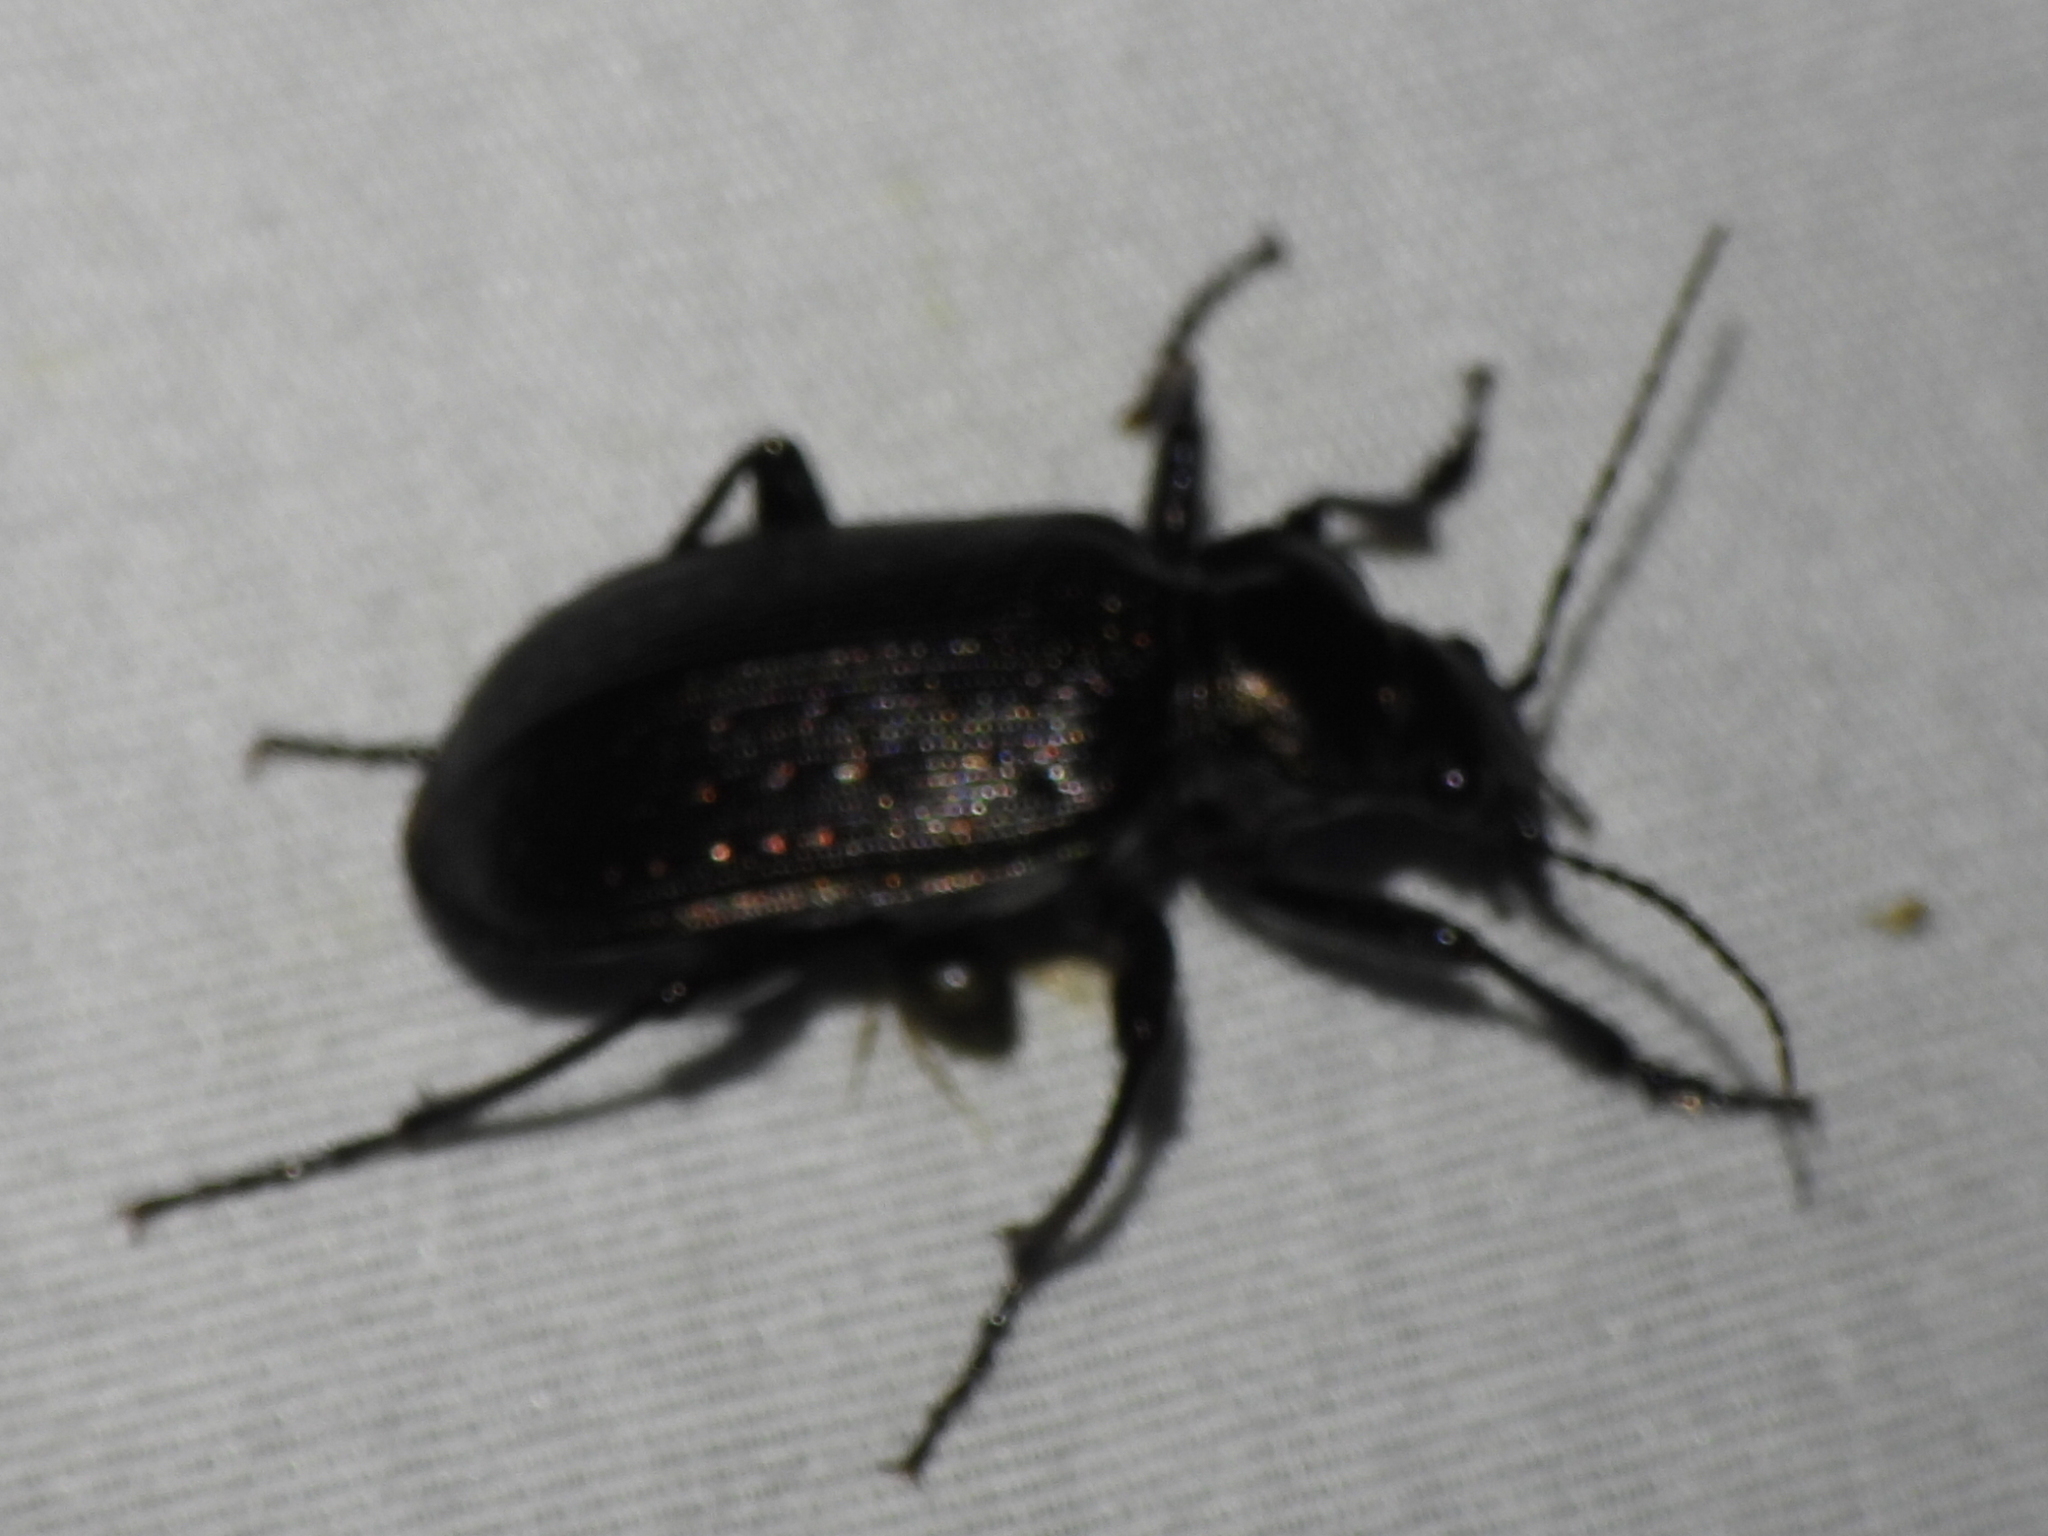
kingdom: Animalia
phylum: Arthropoda
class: Insecta
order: Coleoptera
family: Carabidae
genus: Calosoma
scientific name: Calosoma sayi
